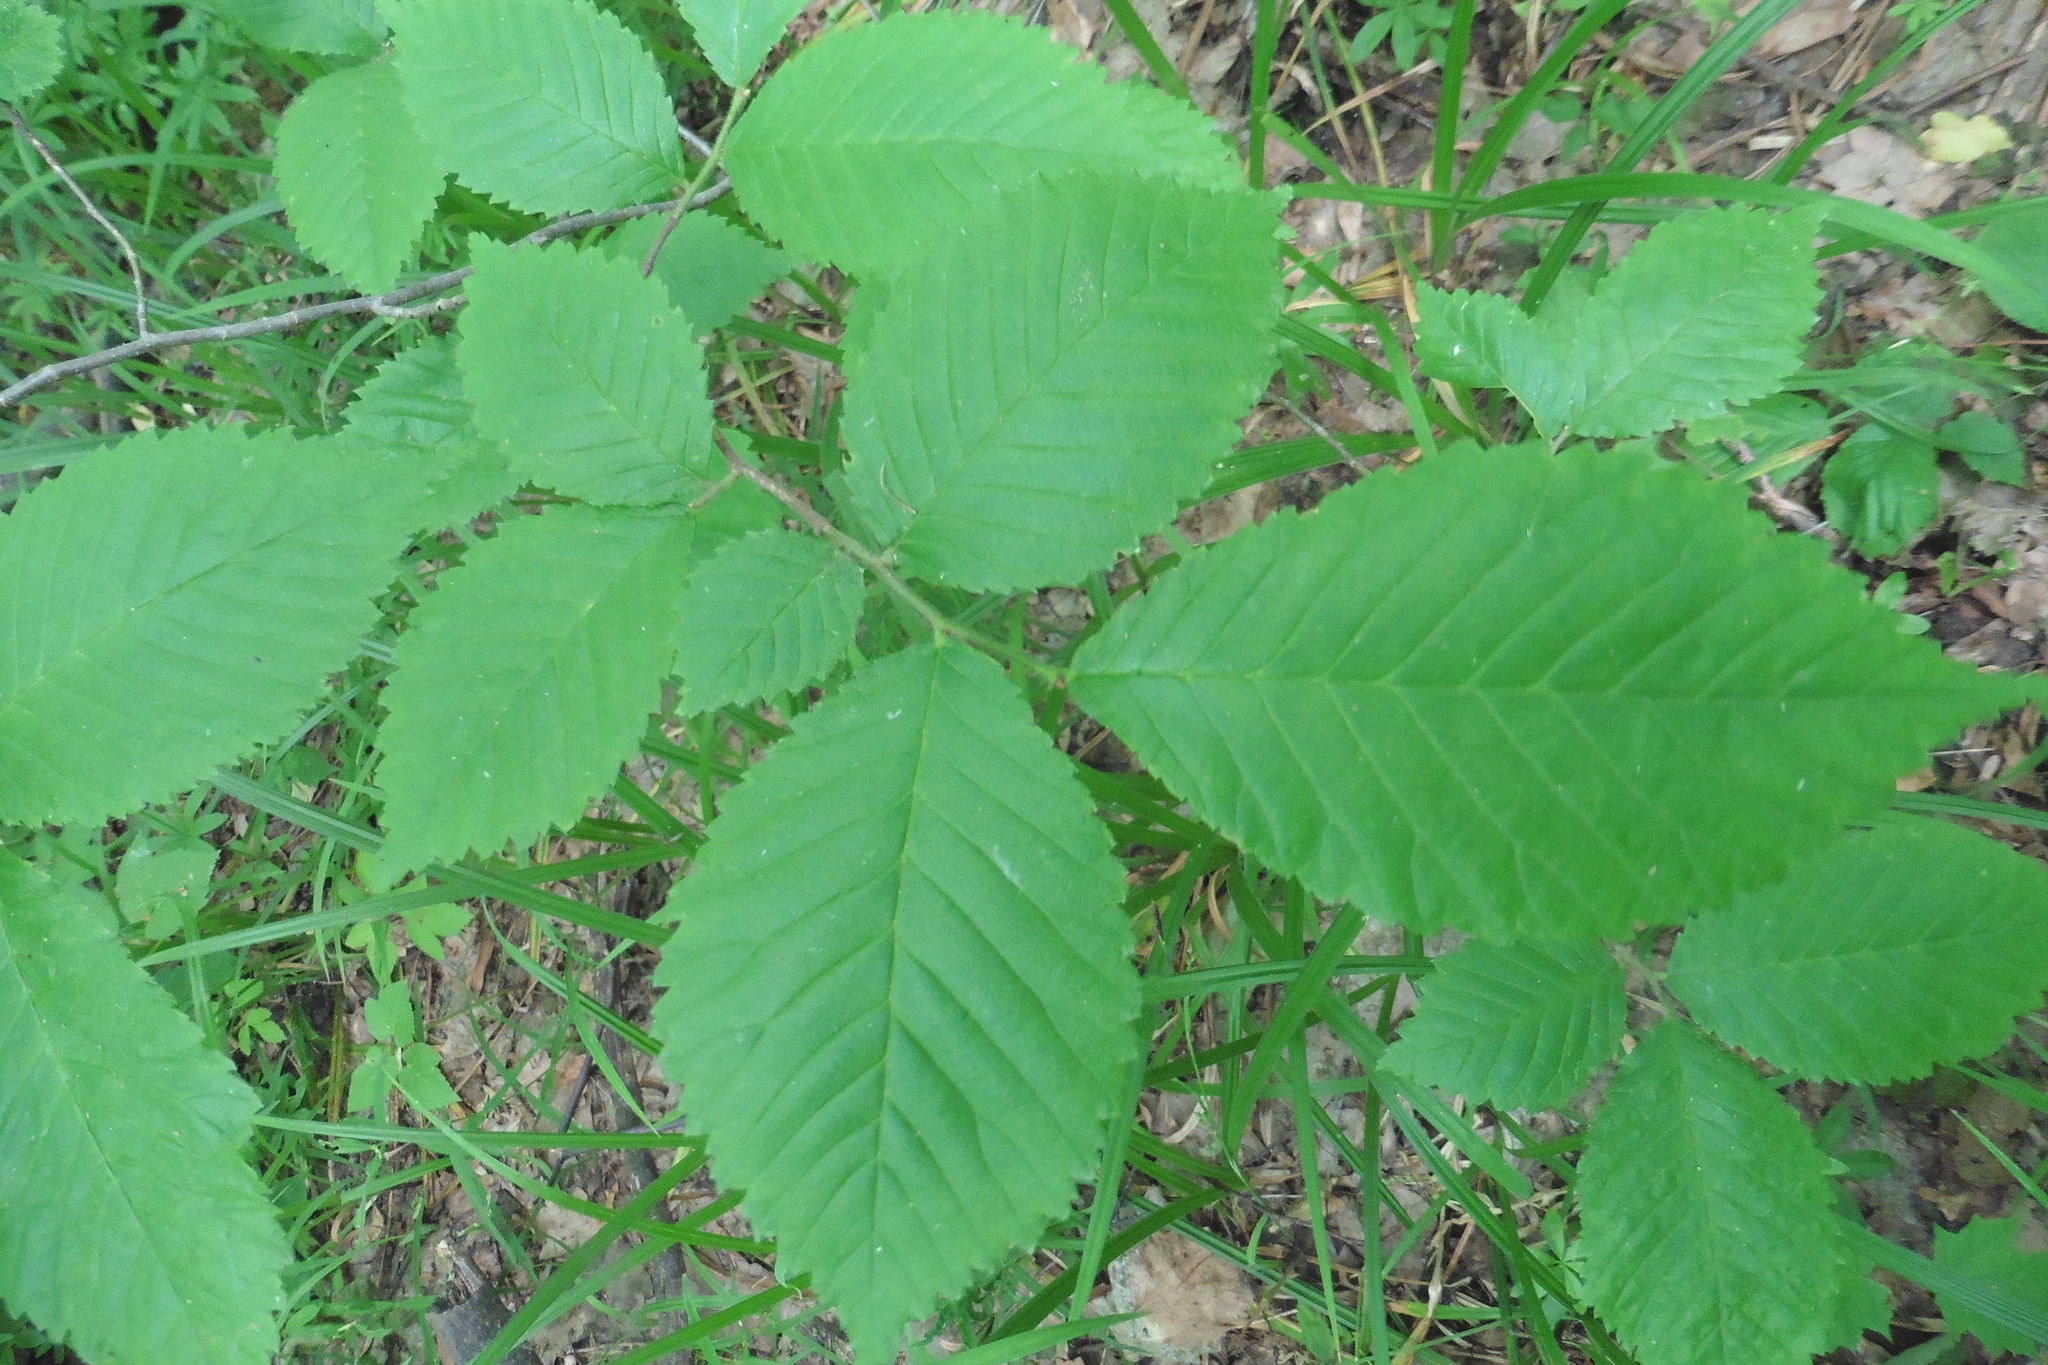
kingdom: Plantae
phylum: Tracheophyta
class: Magnoliopsida
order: Rosales
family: Ulmaceae
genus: Ulmus
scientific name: Ulmus glabra
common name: Wych elm
